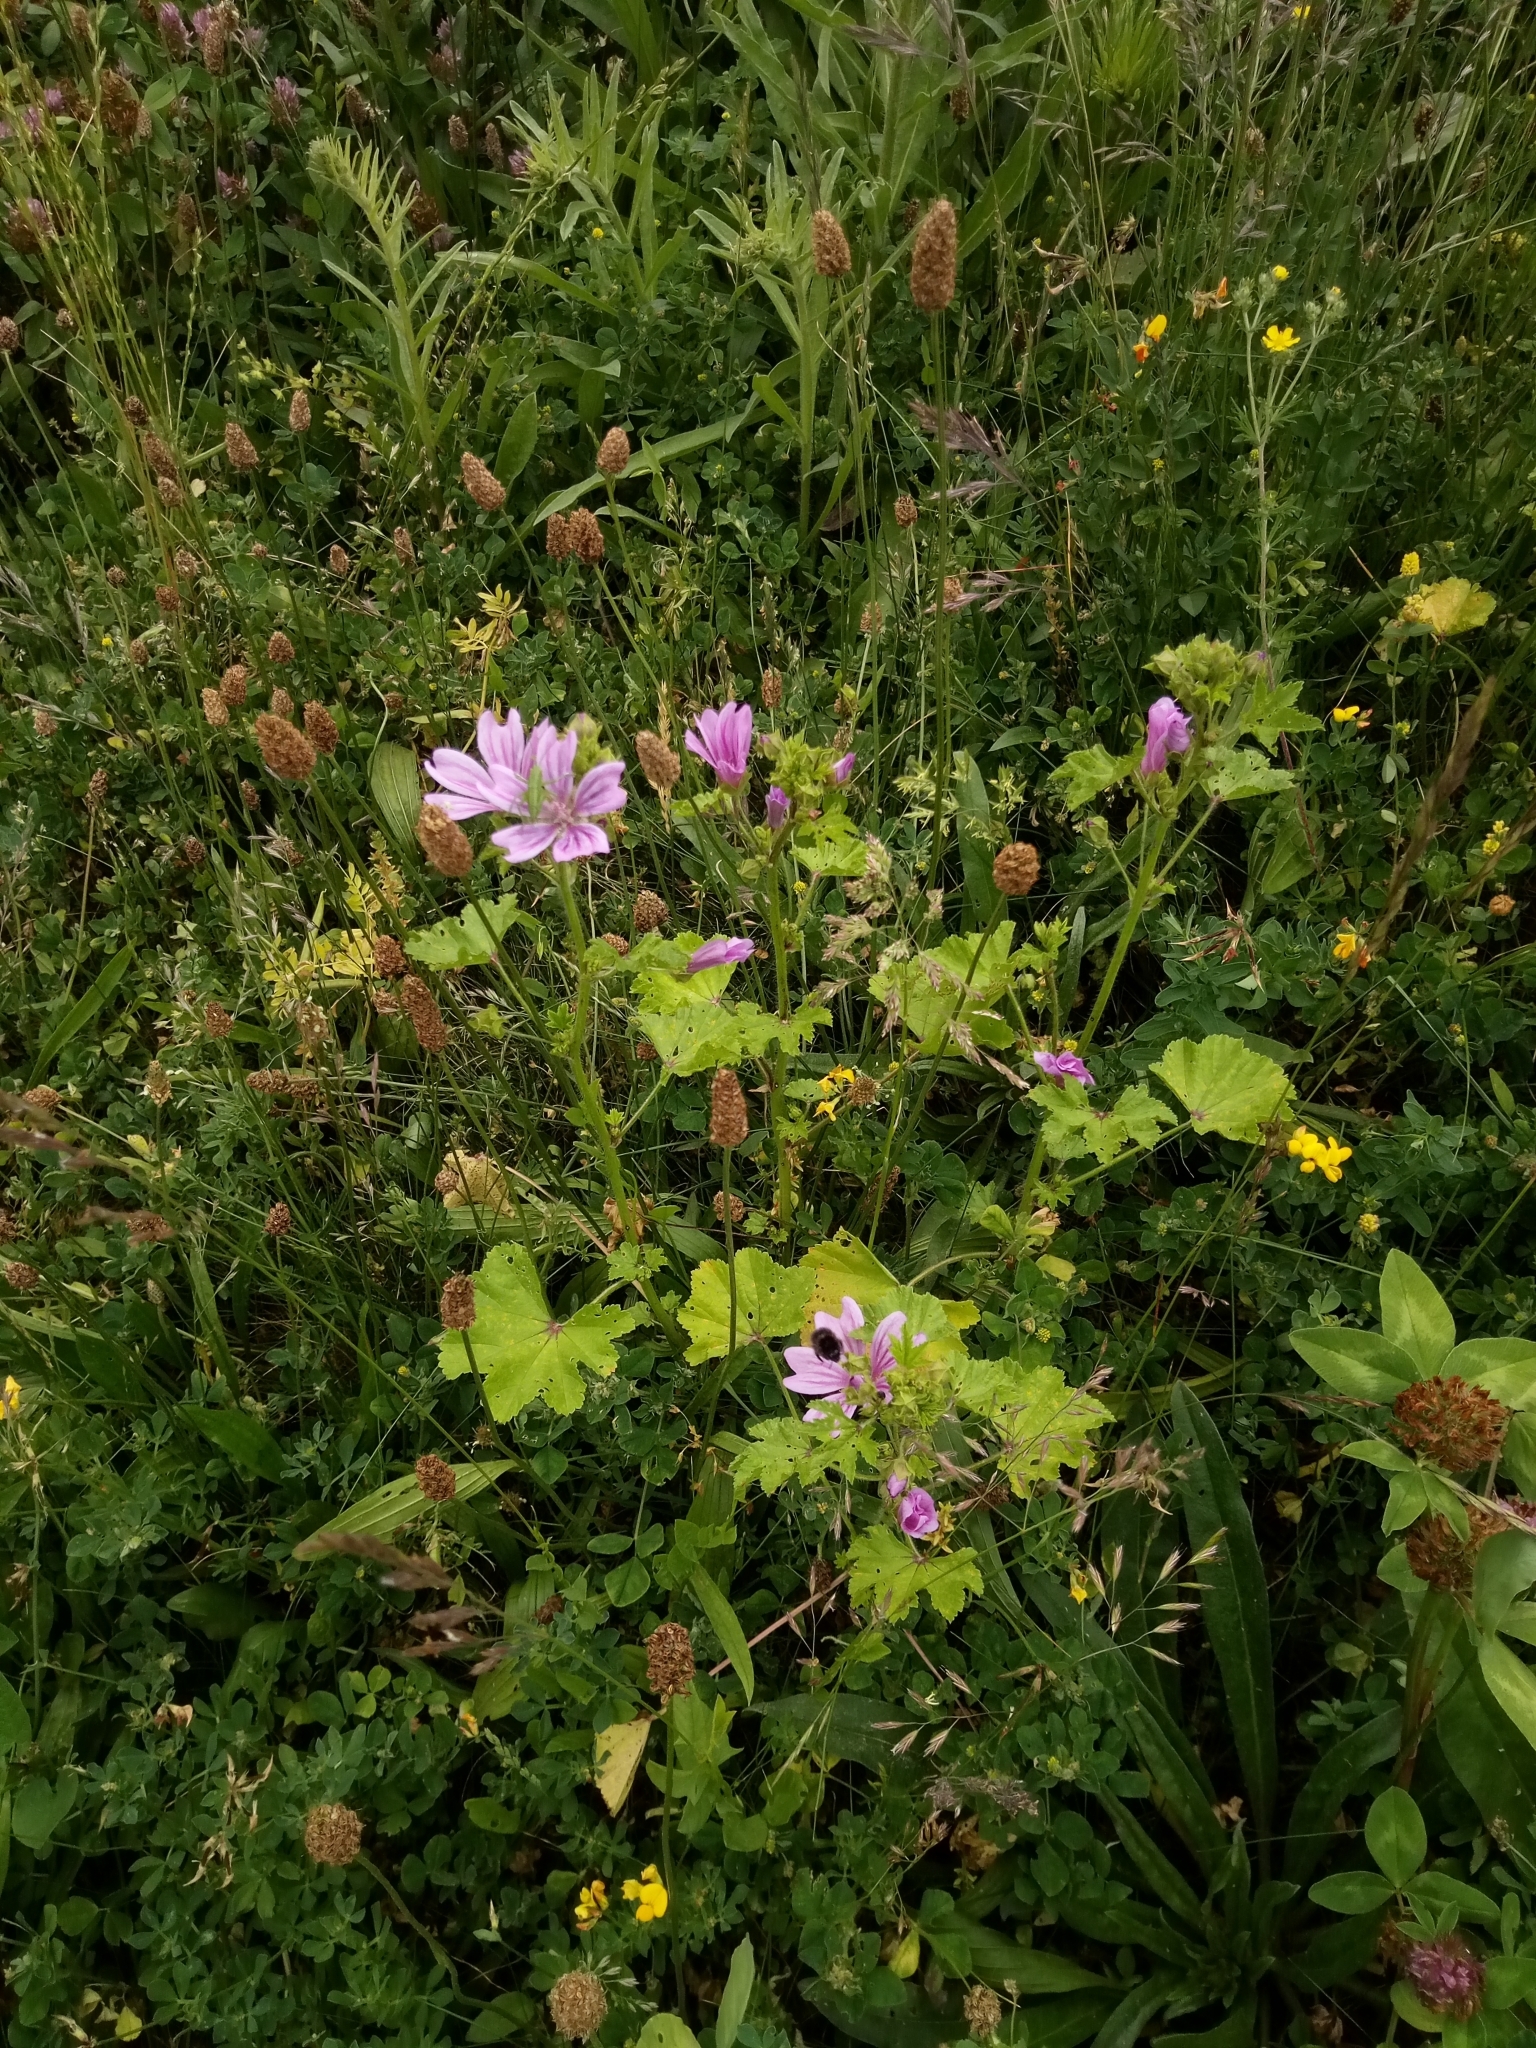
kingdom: Plantae
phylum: Tracheophyta
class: Magnoliopsida
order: Malvales
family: Malvaceae
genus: Malva
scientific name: Malva sylvestris
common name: Common mallow
